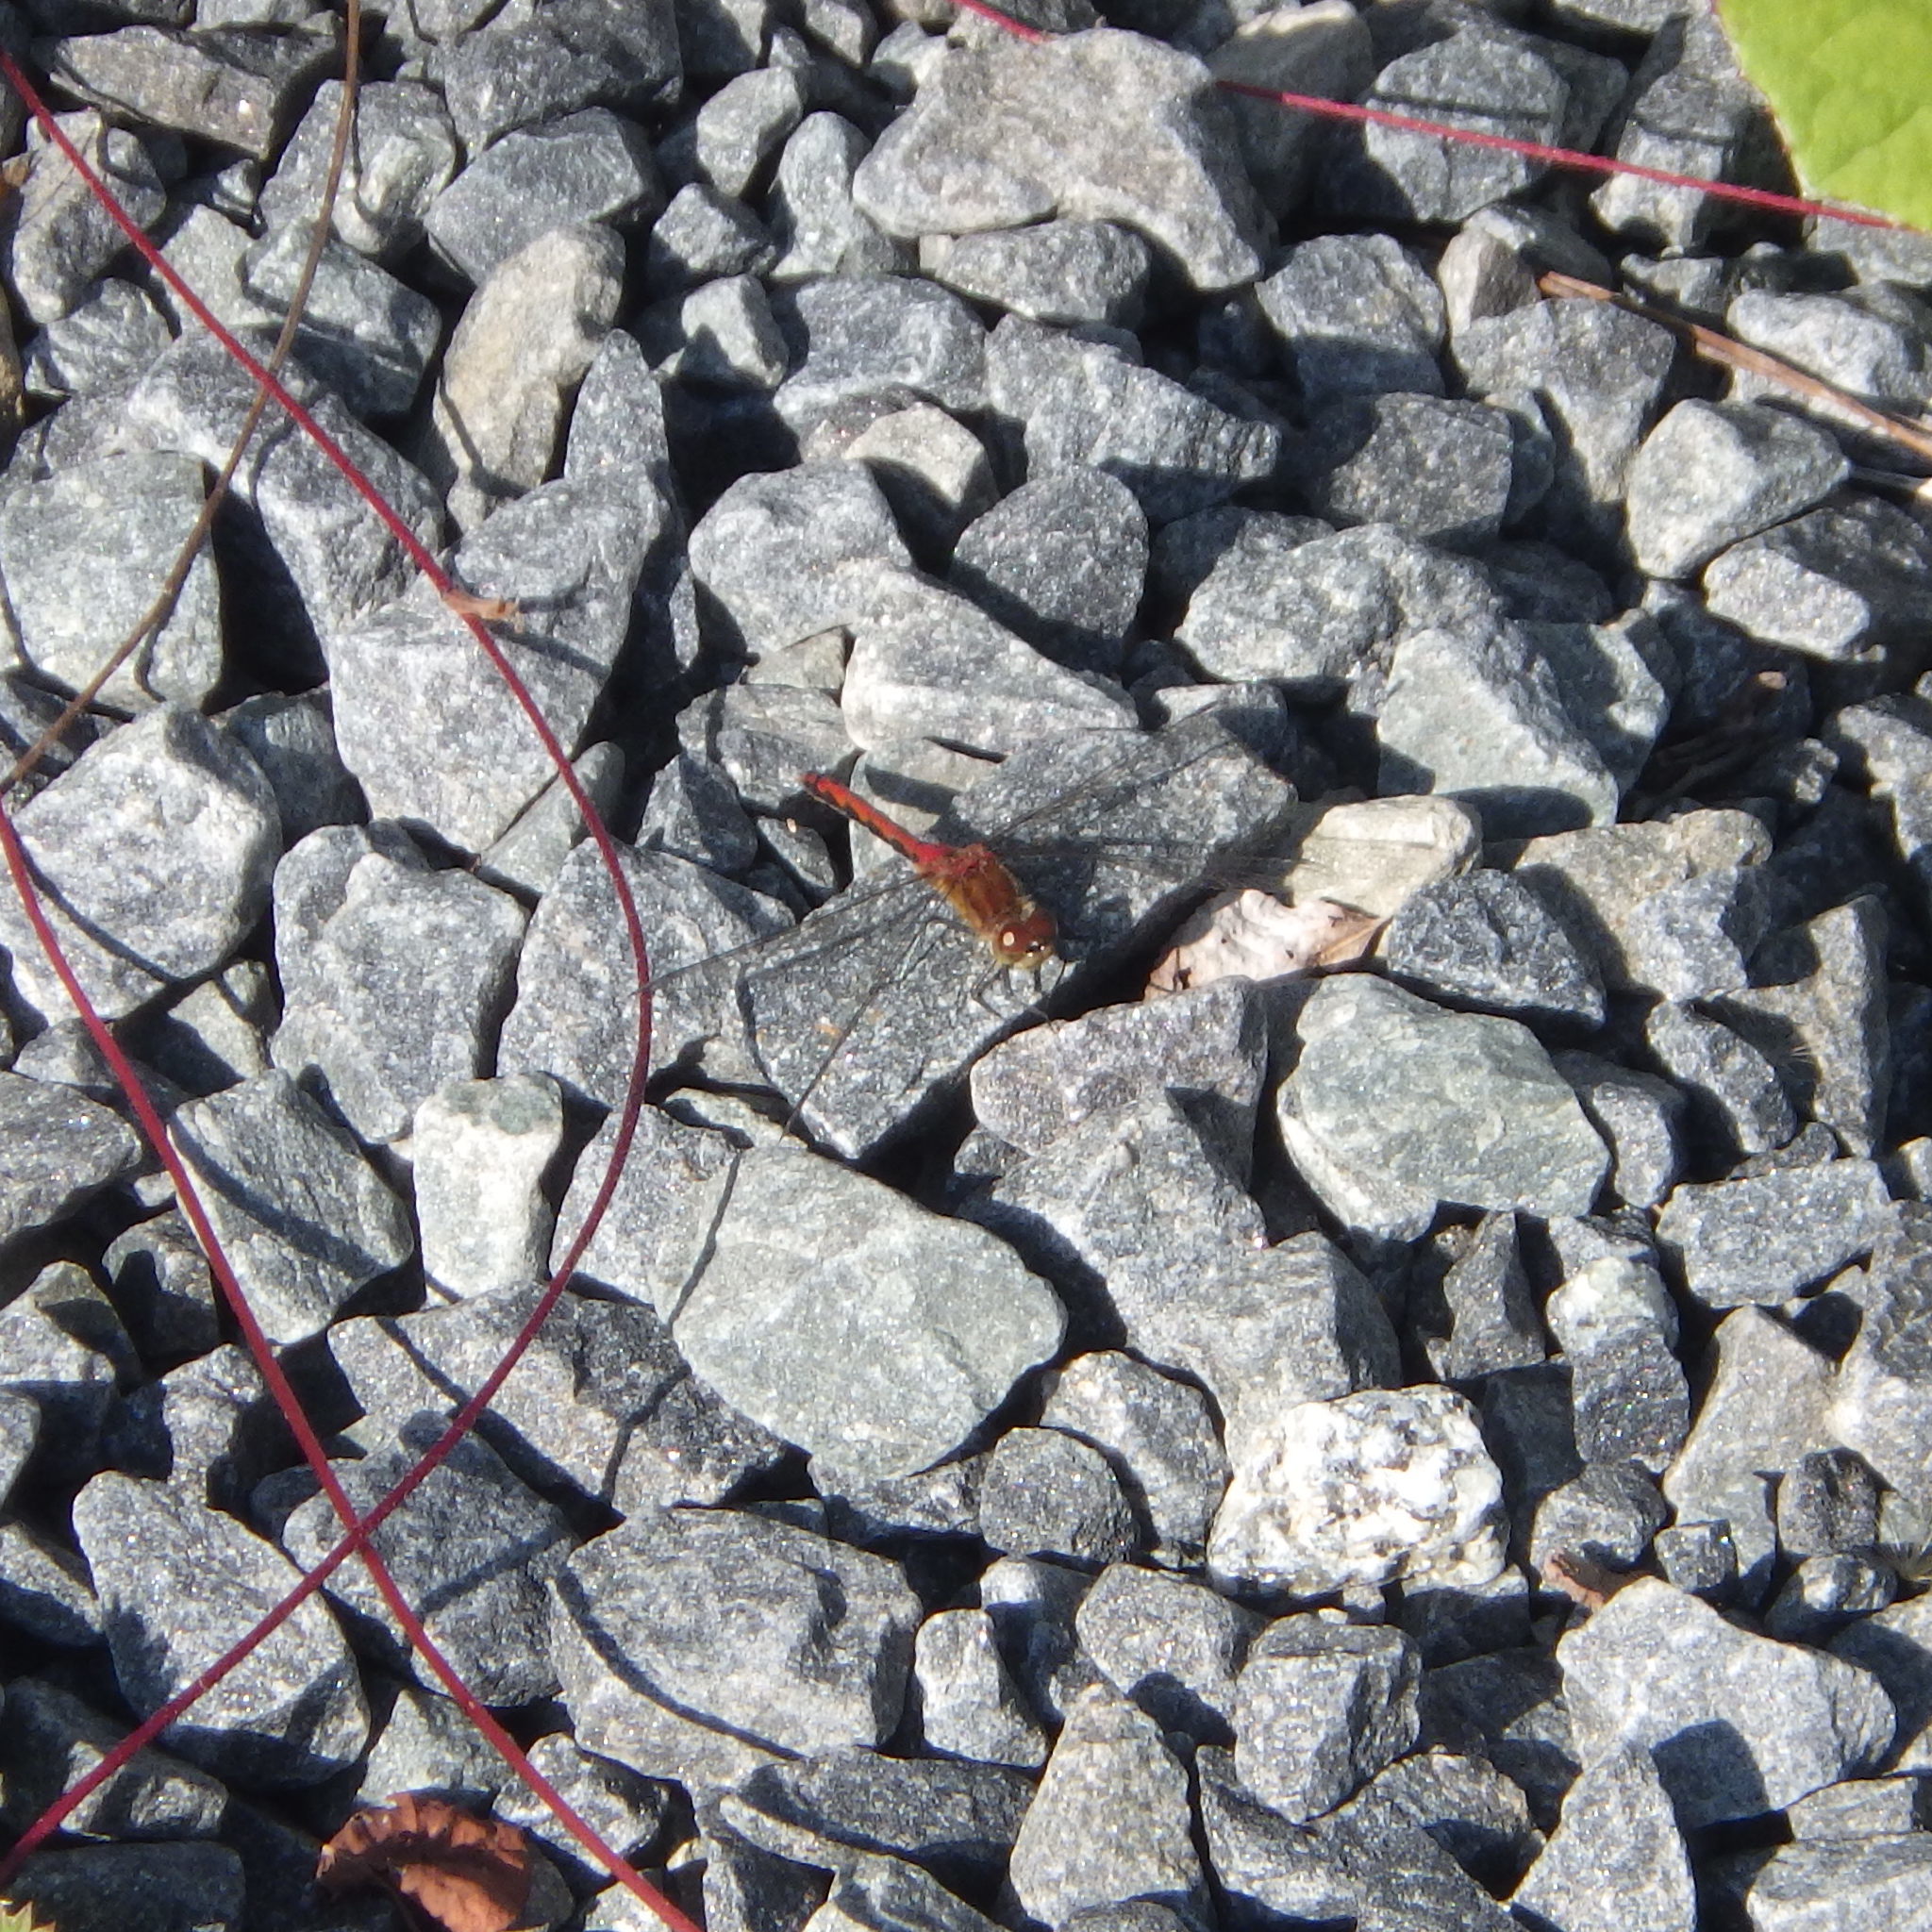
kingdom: Animalia
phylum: Arthropoda
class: Insecta
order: Odonata
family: Libellulidae
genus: Sympetrum
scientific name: Sympetrum internum
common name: Cherry-faced meadowhawk
